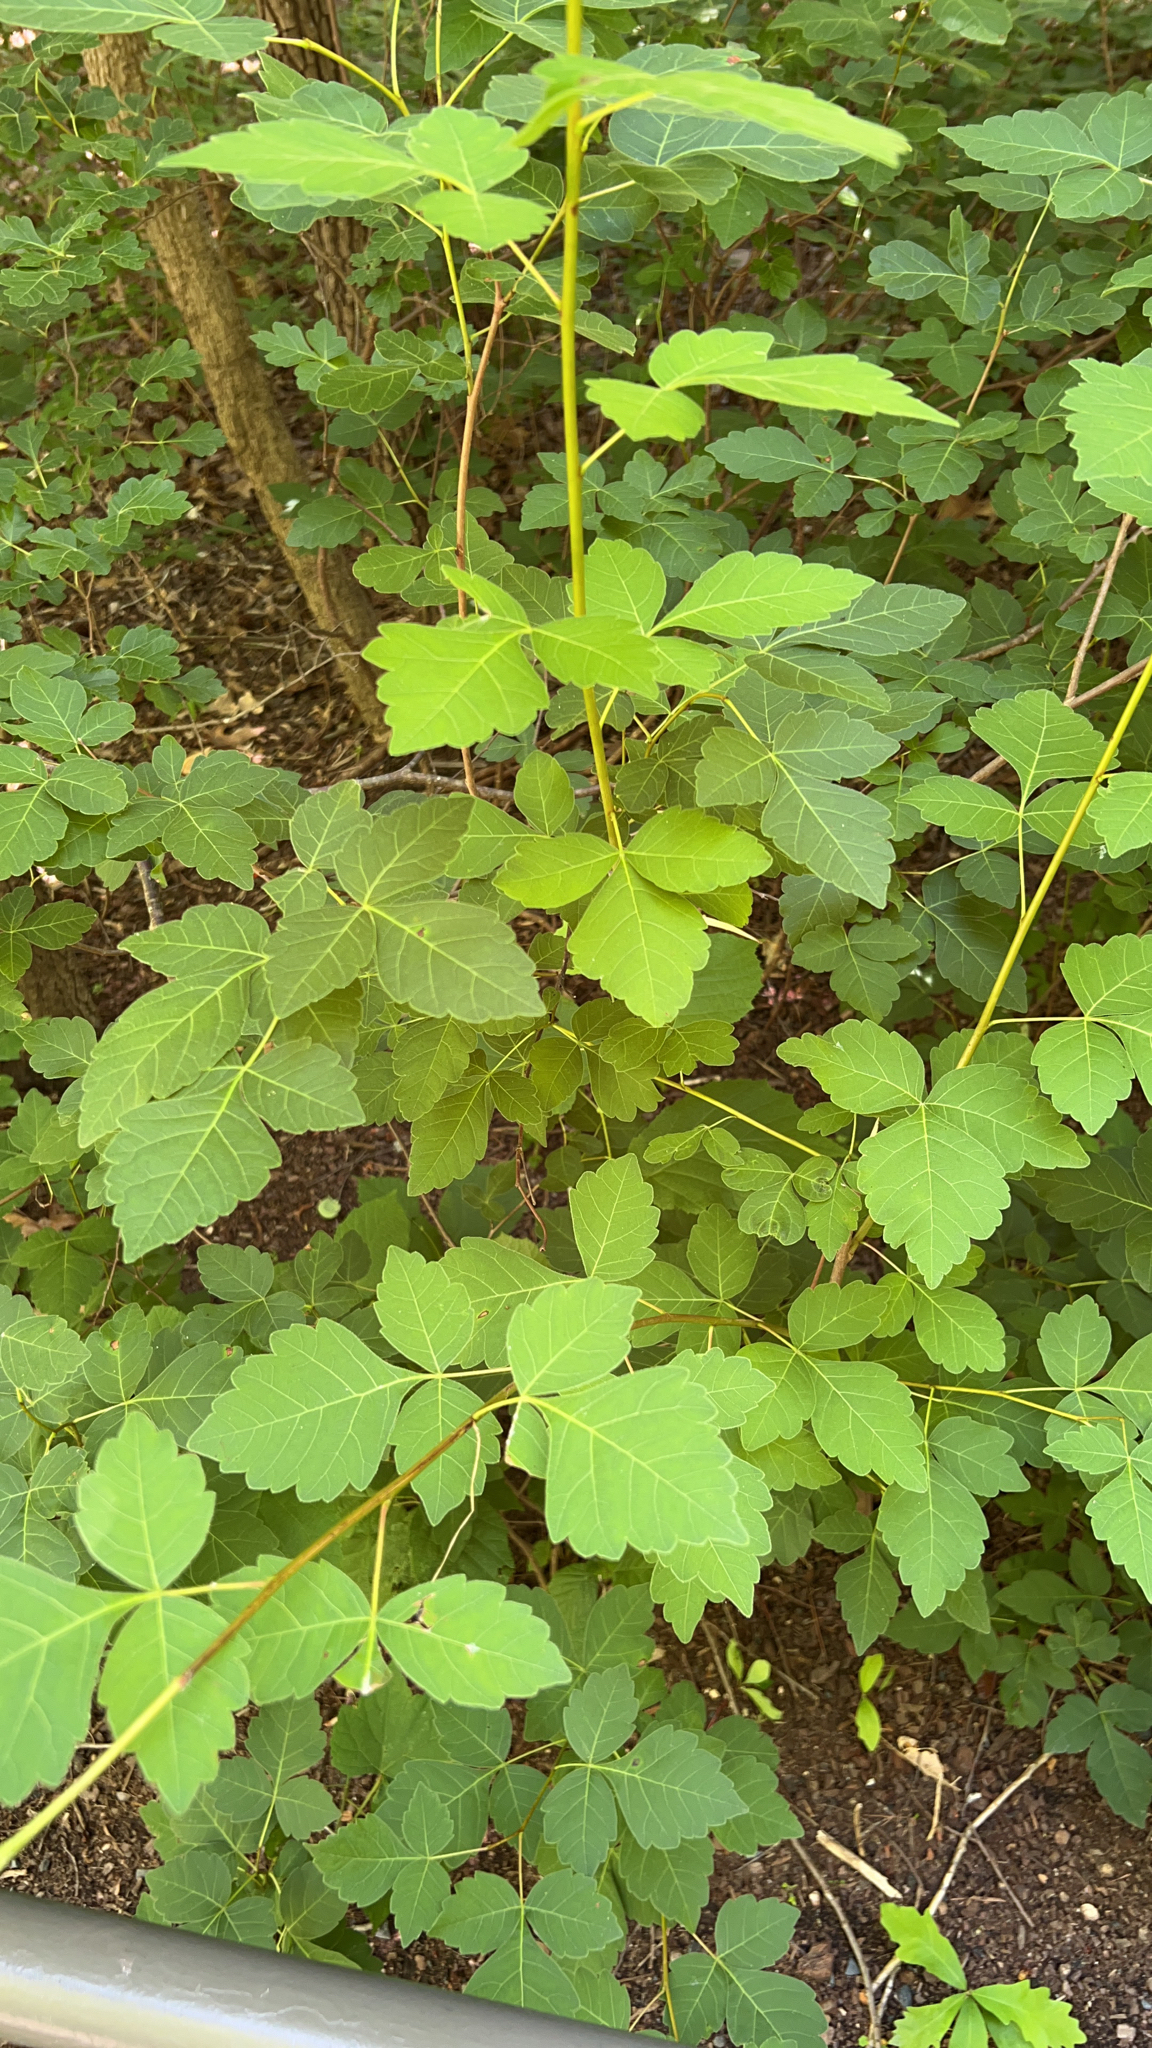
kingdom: Plantae
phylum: Tracheophyta
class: Magnoliopsida
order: Sapindales
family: Anacardiaceae
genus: Rhus
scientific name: Rhus aromatica
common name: Aromatic sumac
